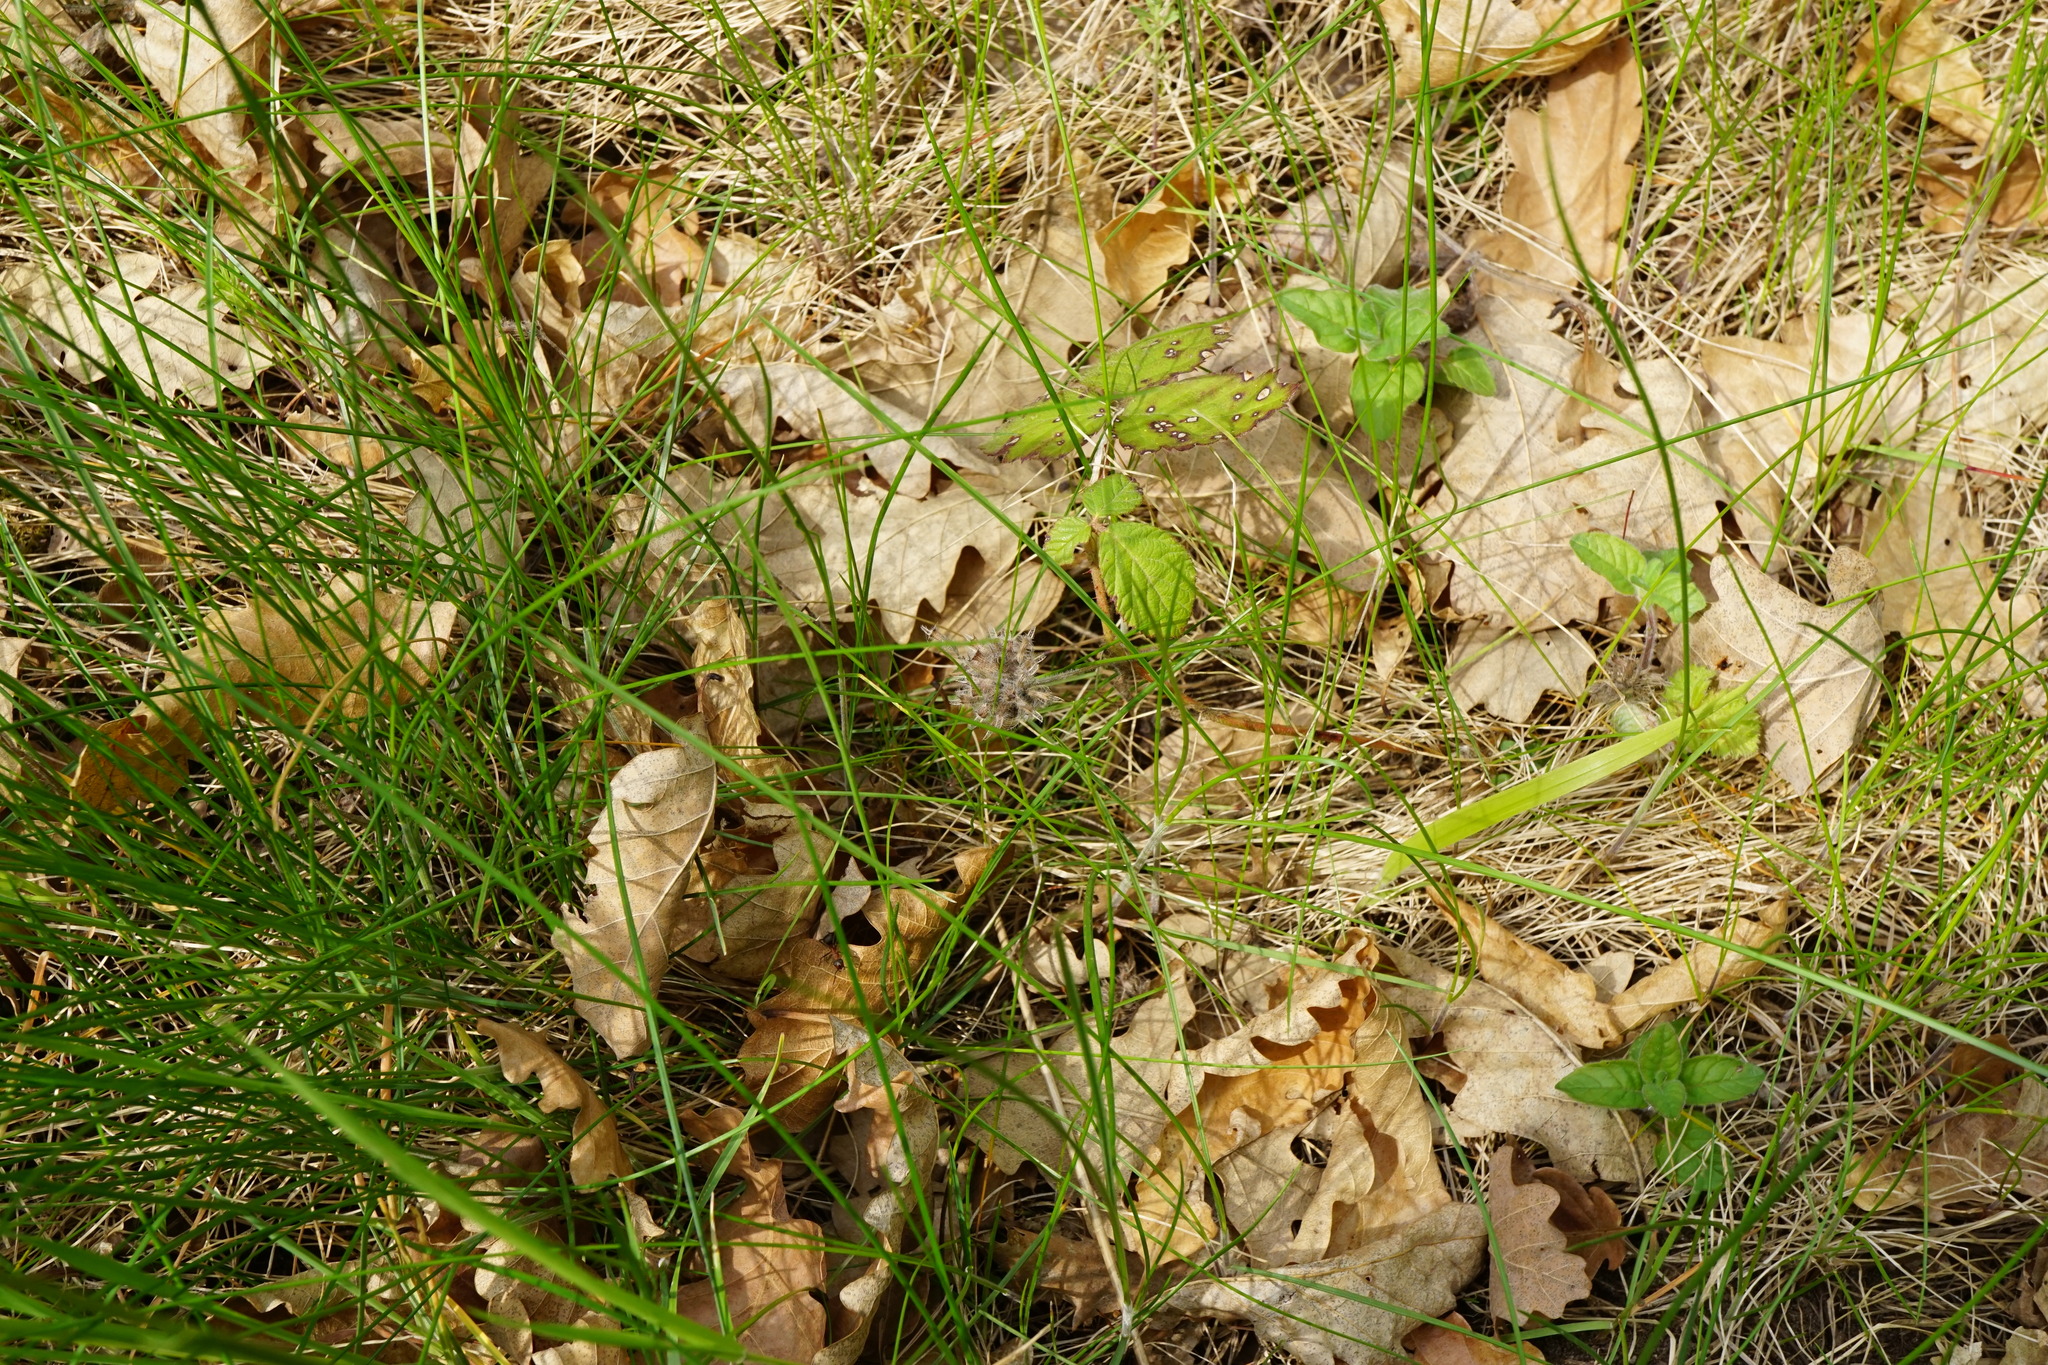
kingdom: Plantae
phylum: Tracheophyta
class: Magnoliopsida
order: Lamiales
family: Lamiaceae
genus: Clinopodium
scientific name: Clinopodium vulgare
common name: Wild basil
